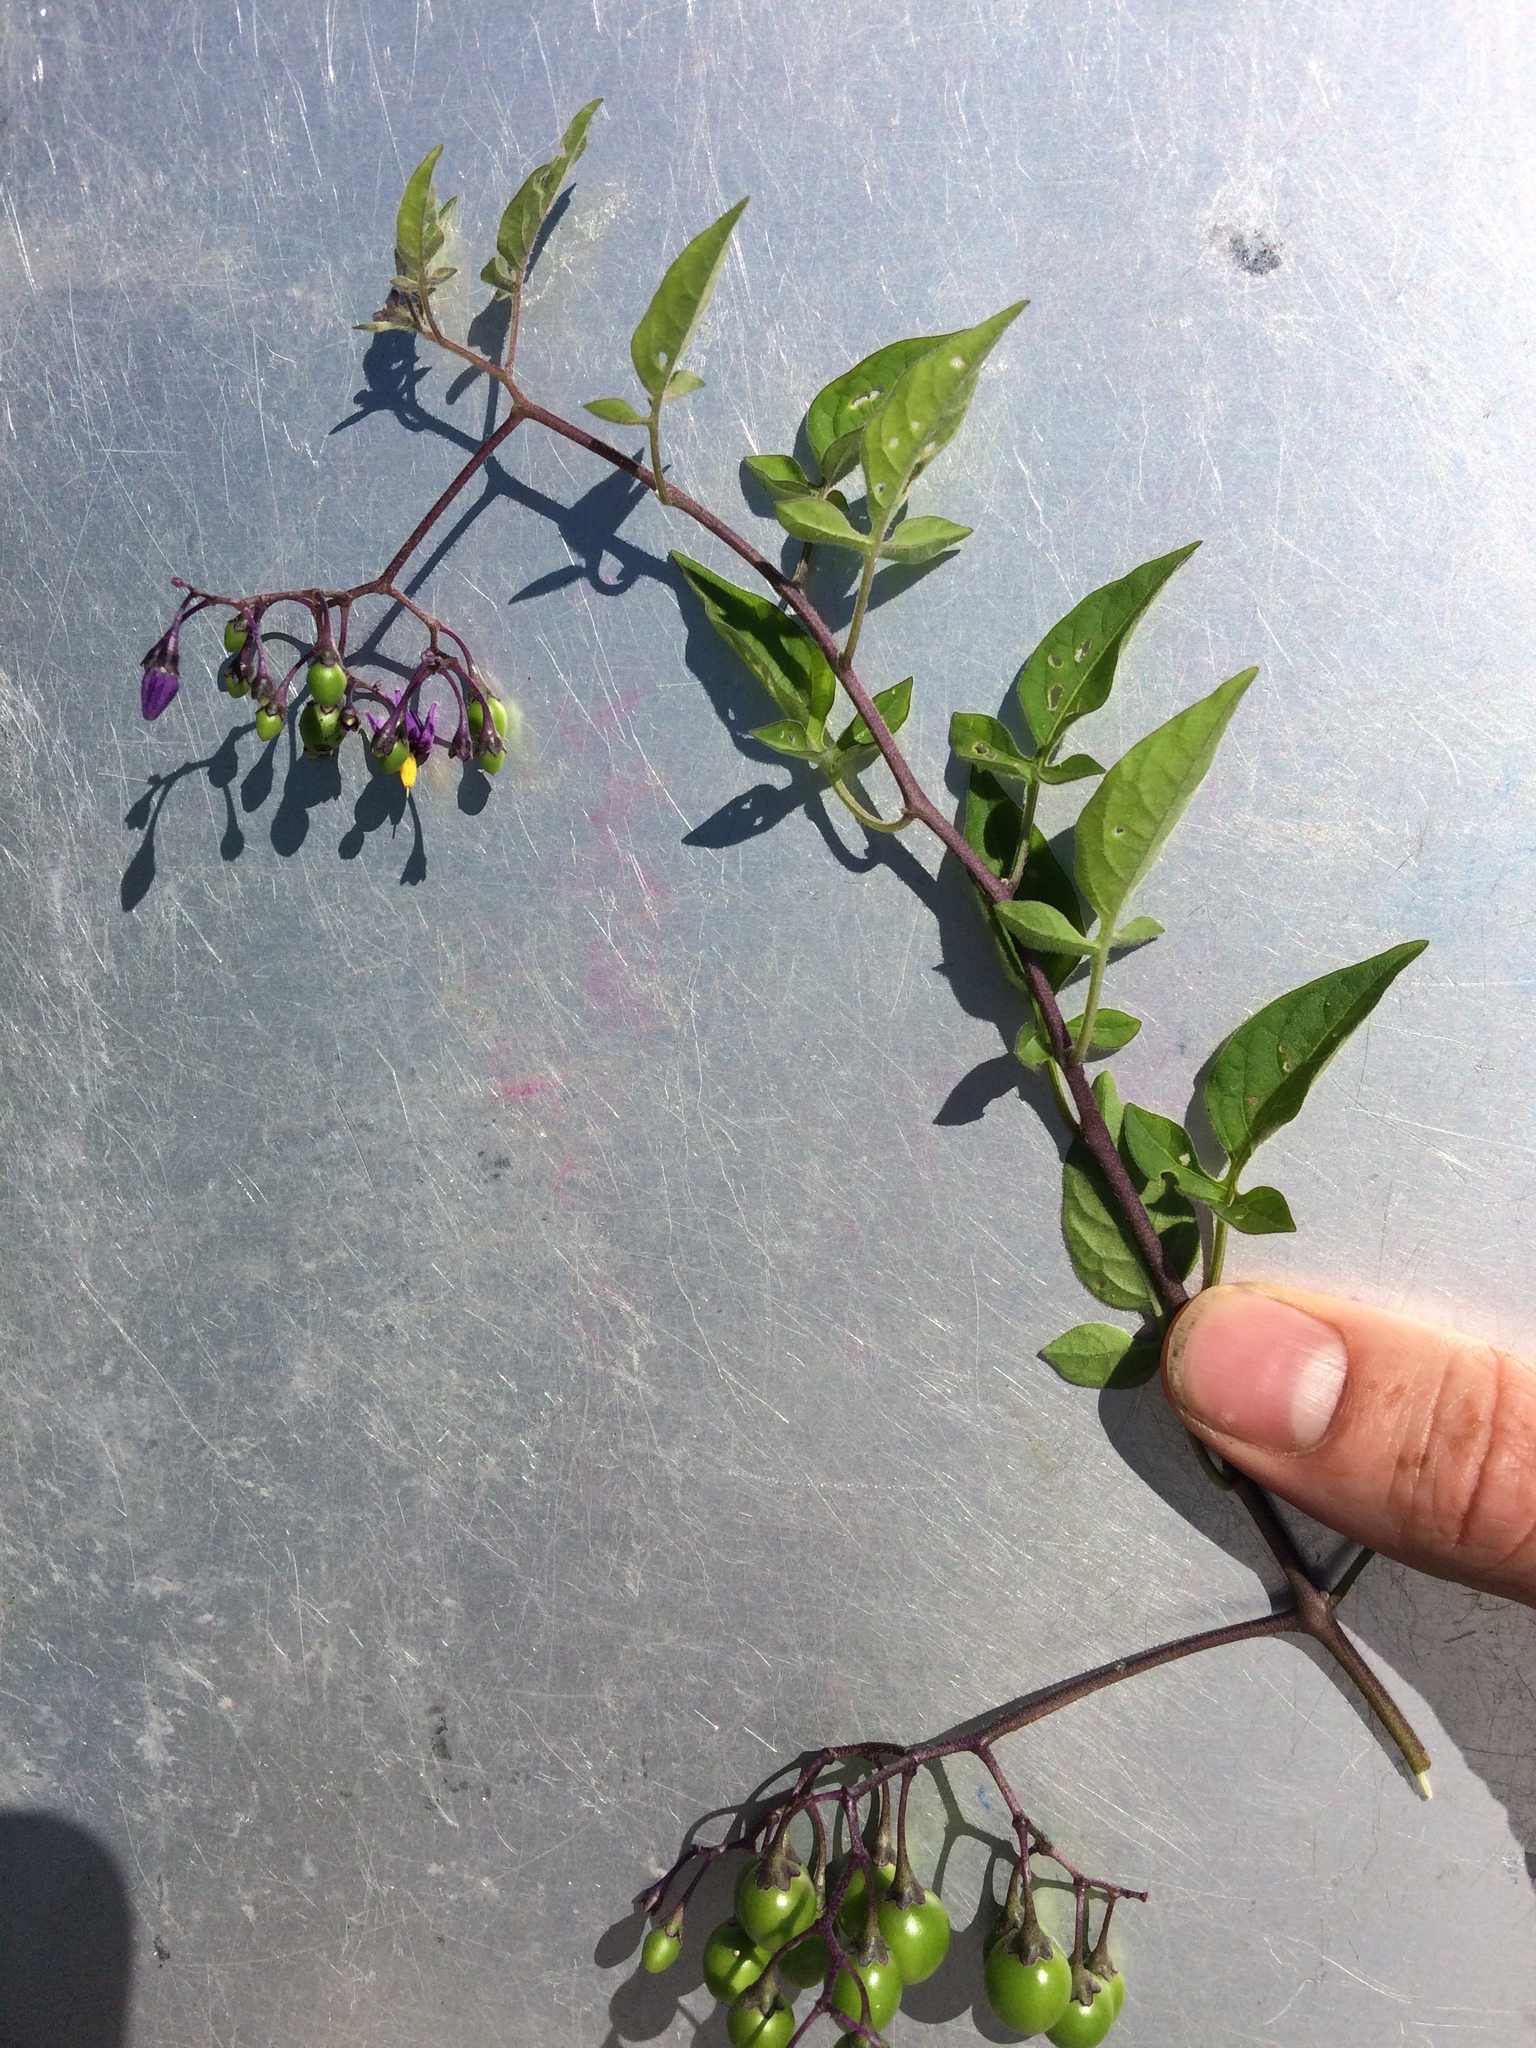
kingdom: Plantae
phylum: Tracheophyta
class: Magnoliopsida
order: Solanales
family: Solanaceae
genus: Solanum
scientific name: Solanum dulcamara
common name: Climbing nightshade
